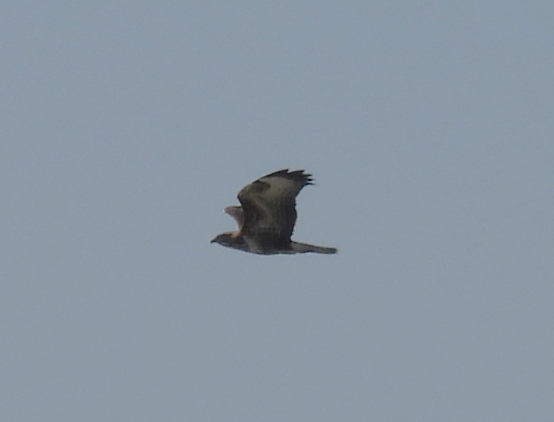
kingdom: Animalia
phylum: Chordata
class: Aves
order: Accipitriformes
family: Accipitridae
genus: Buteo
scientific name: Buteo buteo
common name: Common buzzard
